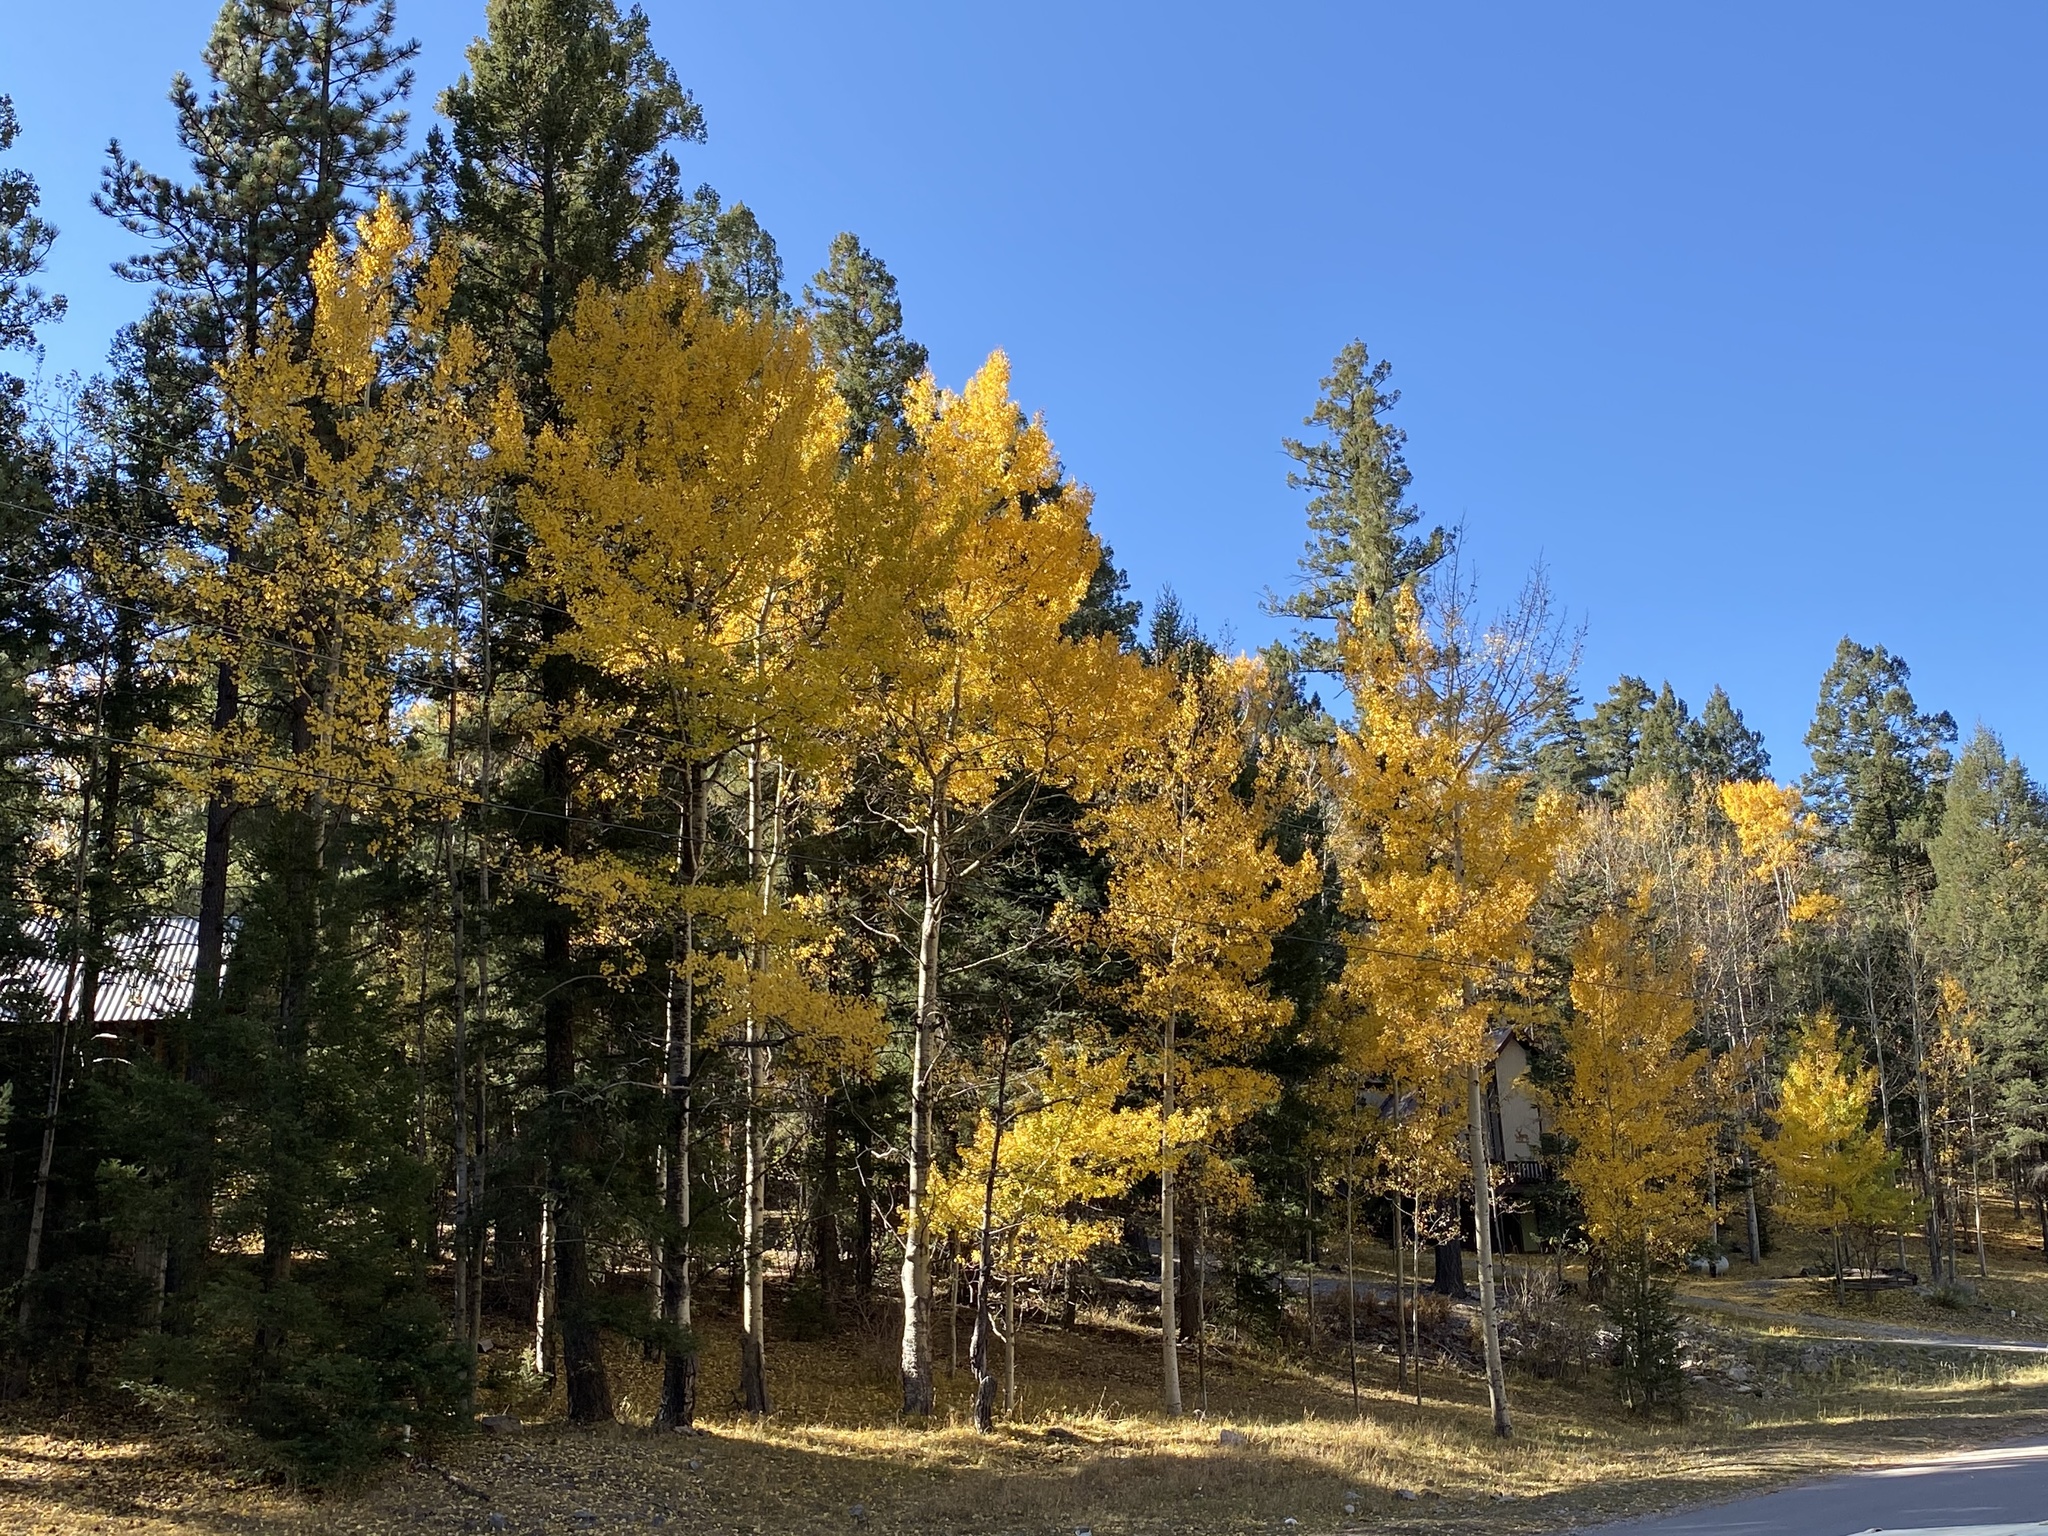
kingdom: Plantae
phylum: Tracheophyta
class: Magnoliopsida
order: Malpighiales
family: Salicaceae
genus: Populus
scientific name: Populus tremuloides
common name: Quaking aspen
